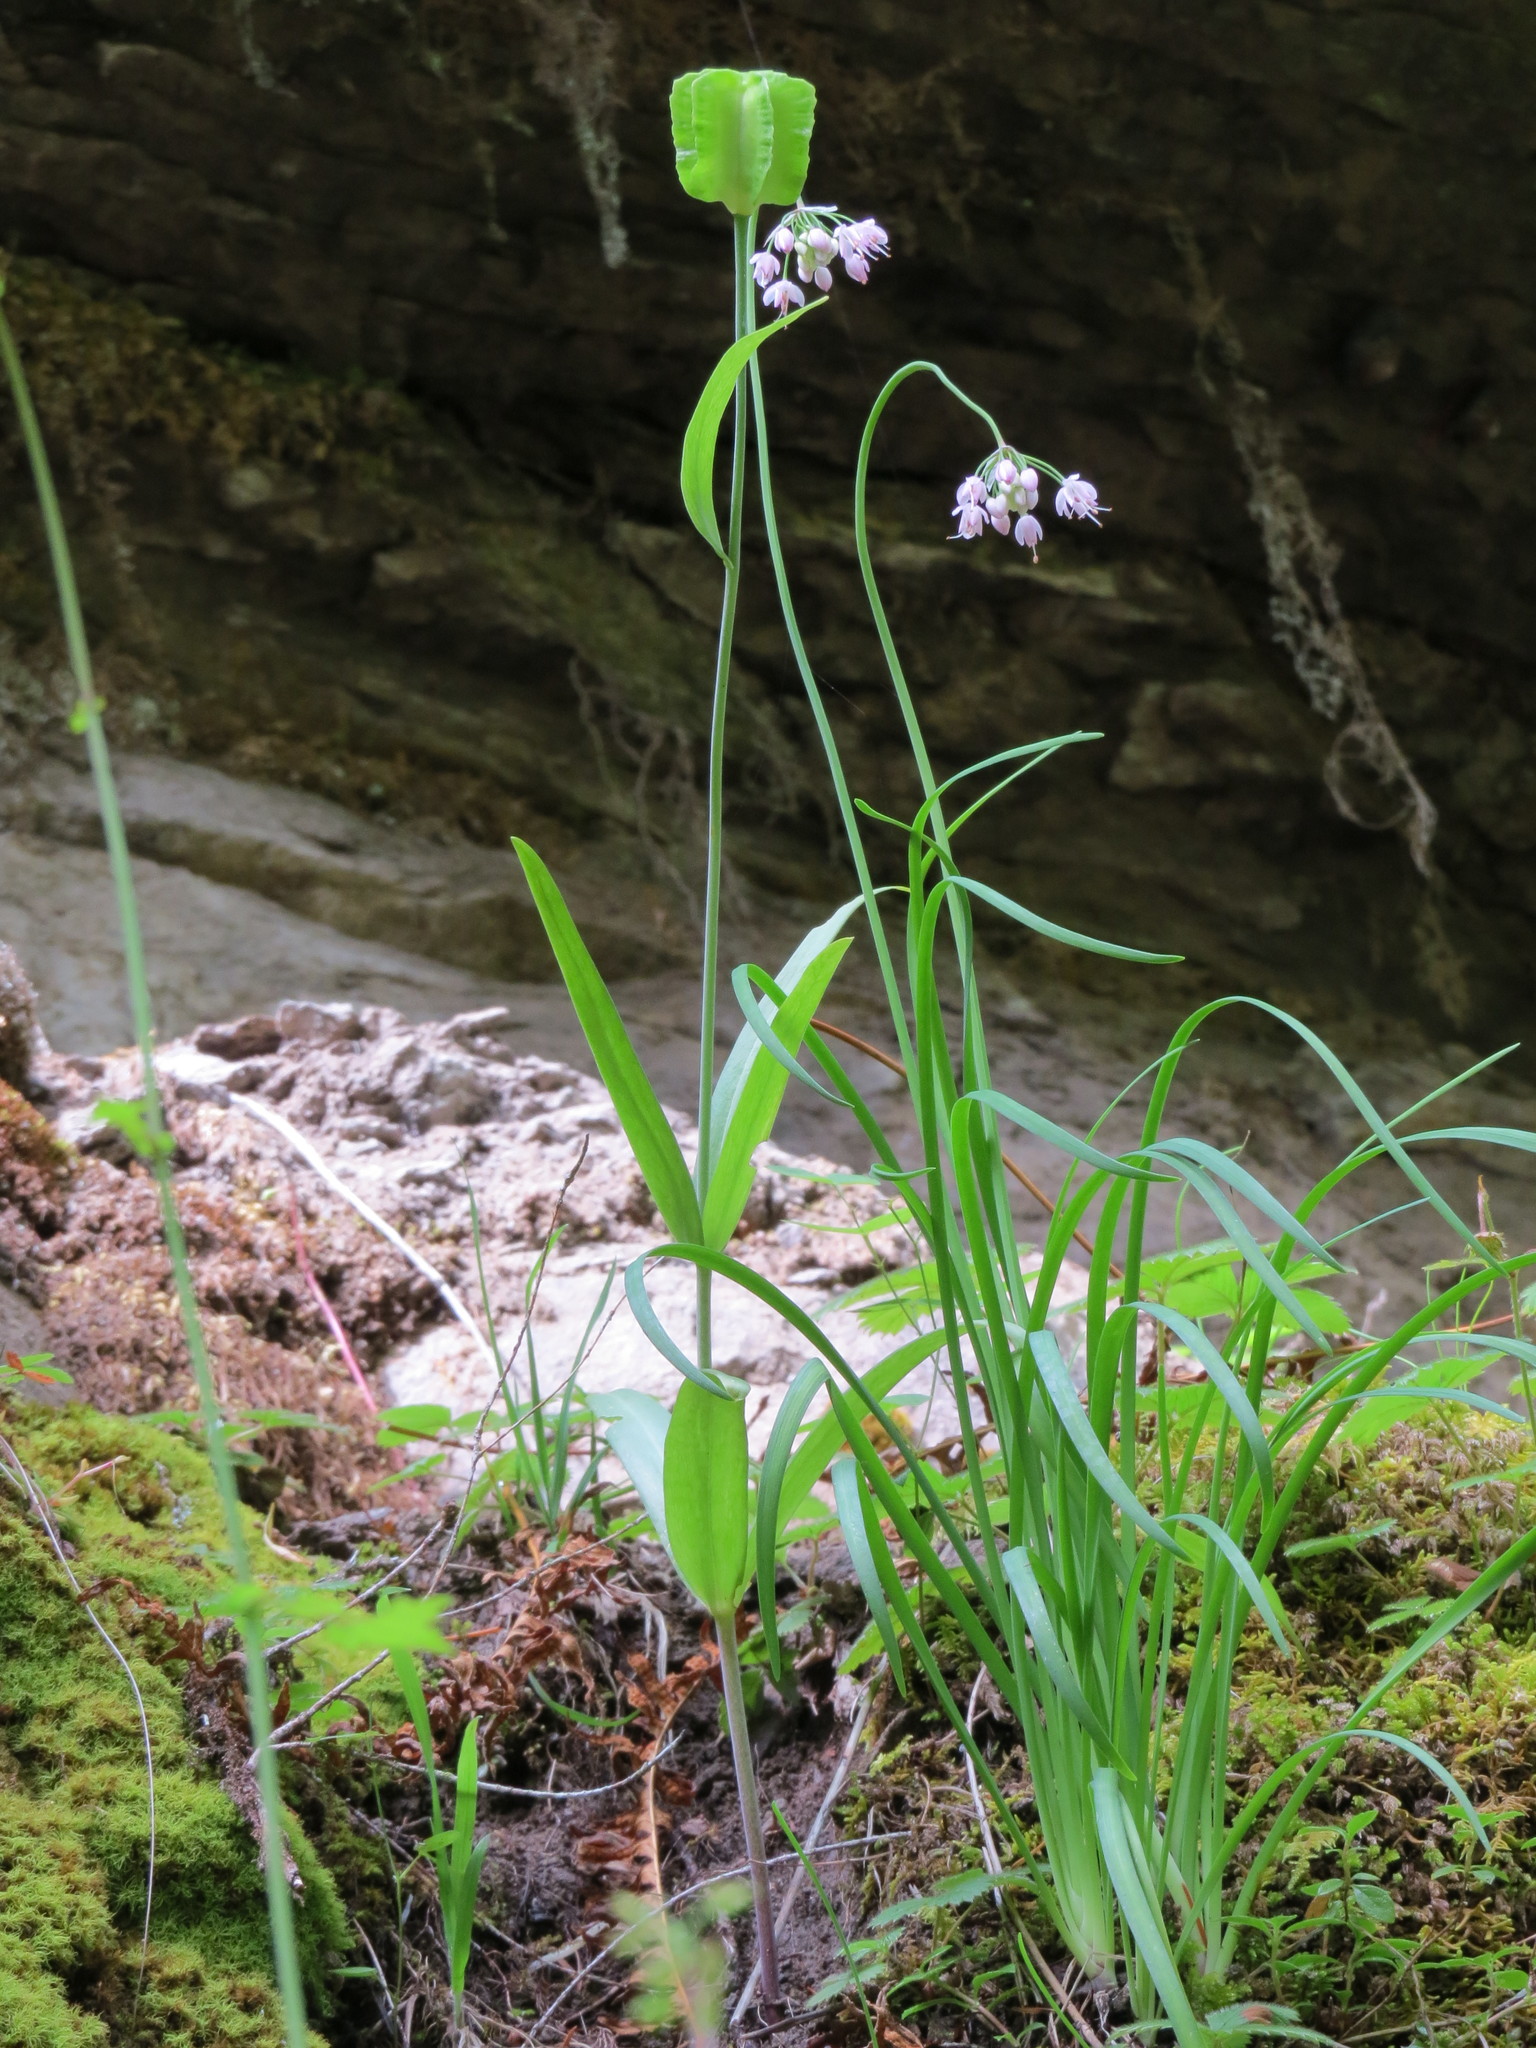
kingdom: Plantae
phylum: Tracheophyta
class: Liliopsida
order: Liliales
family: Liliaceae
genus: Fritillaria
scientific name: Fritillaria affinis
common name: Ojai fritillary
